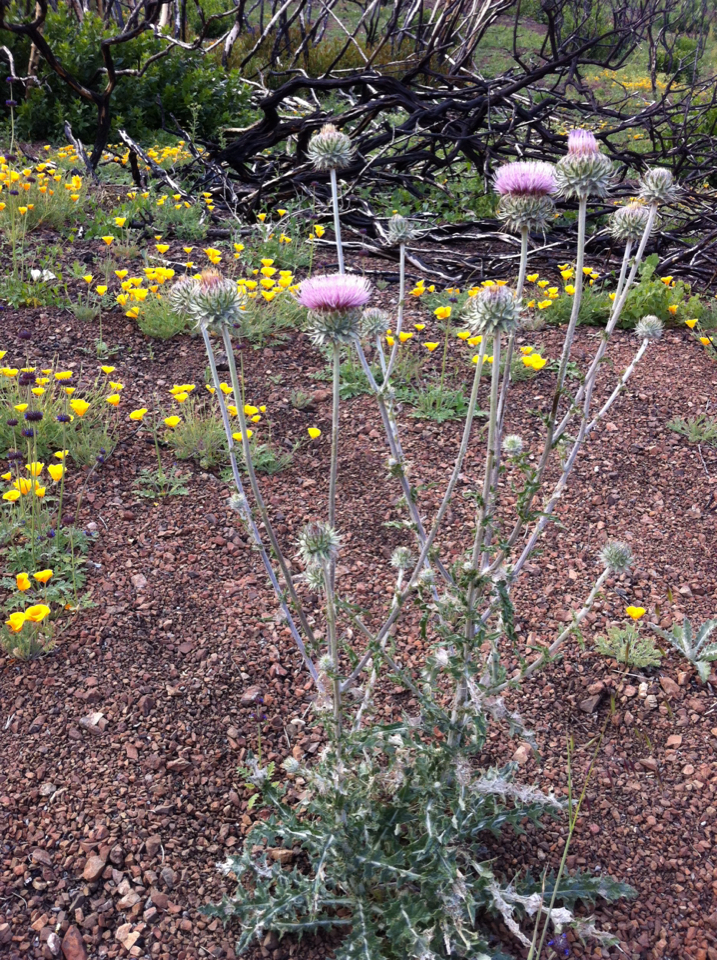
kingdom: Plantae
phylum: Tracheophyta
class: Magnoliopsida
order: Asterales
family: Asteraceae
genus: Cirsium
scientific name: Cirsium occidentale
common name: Western thistle
